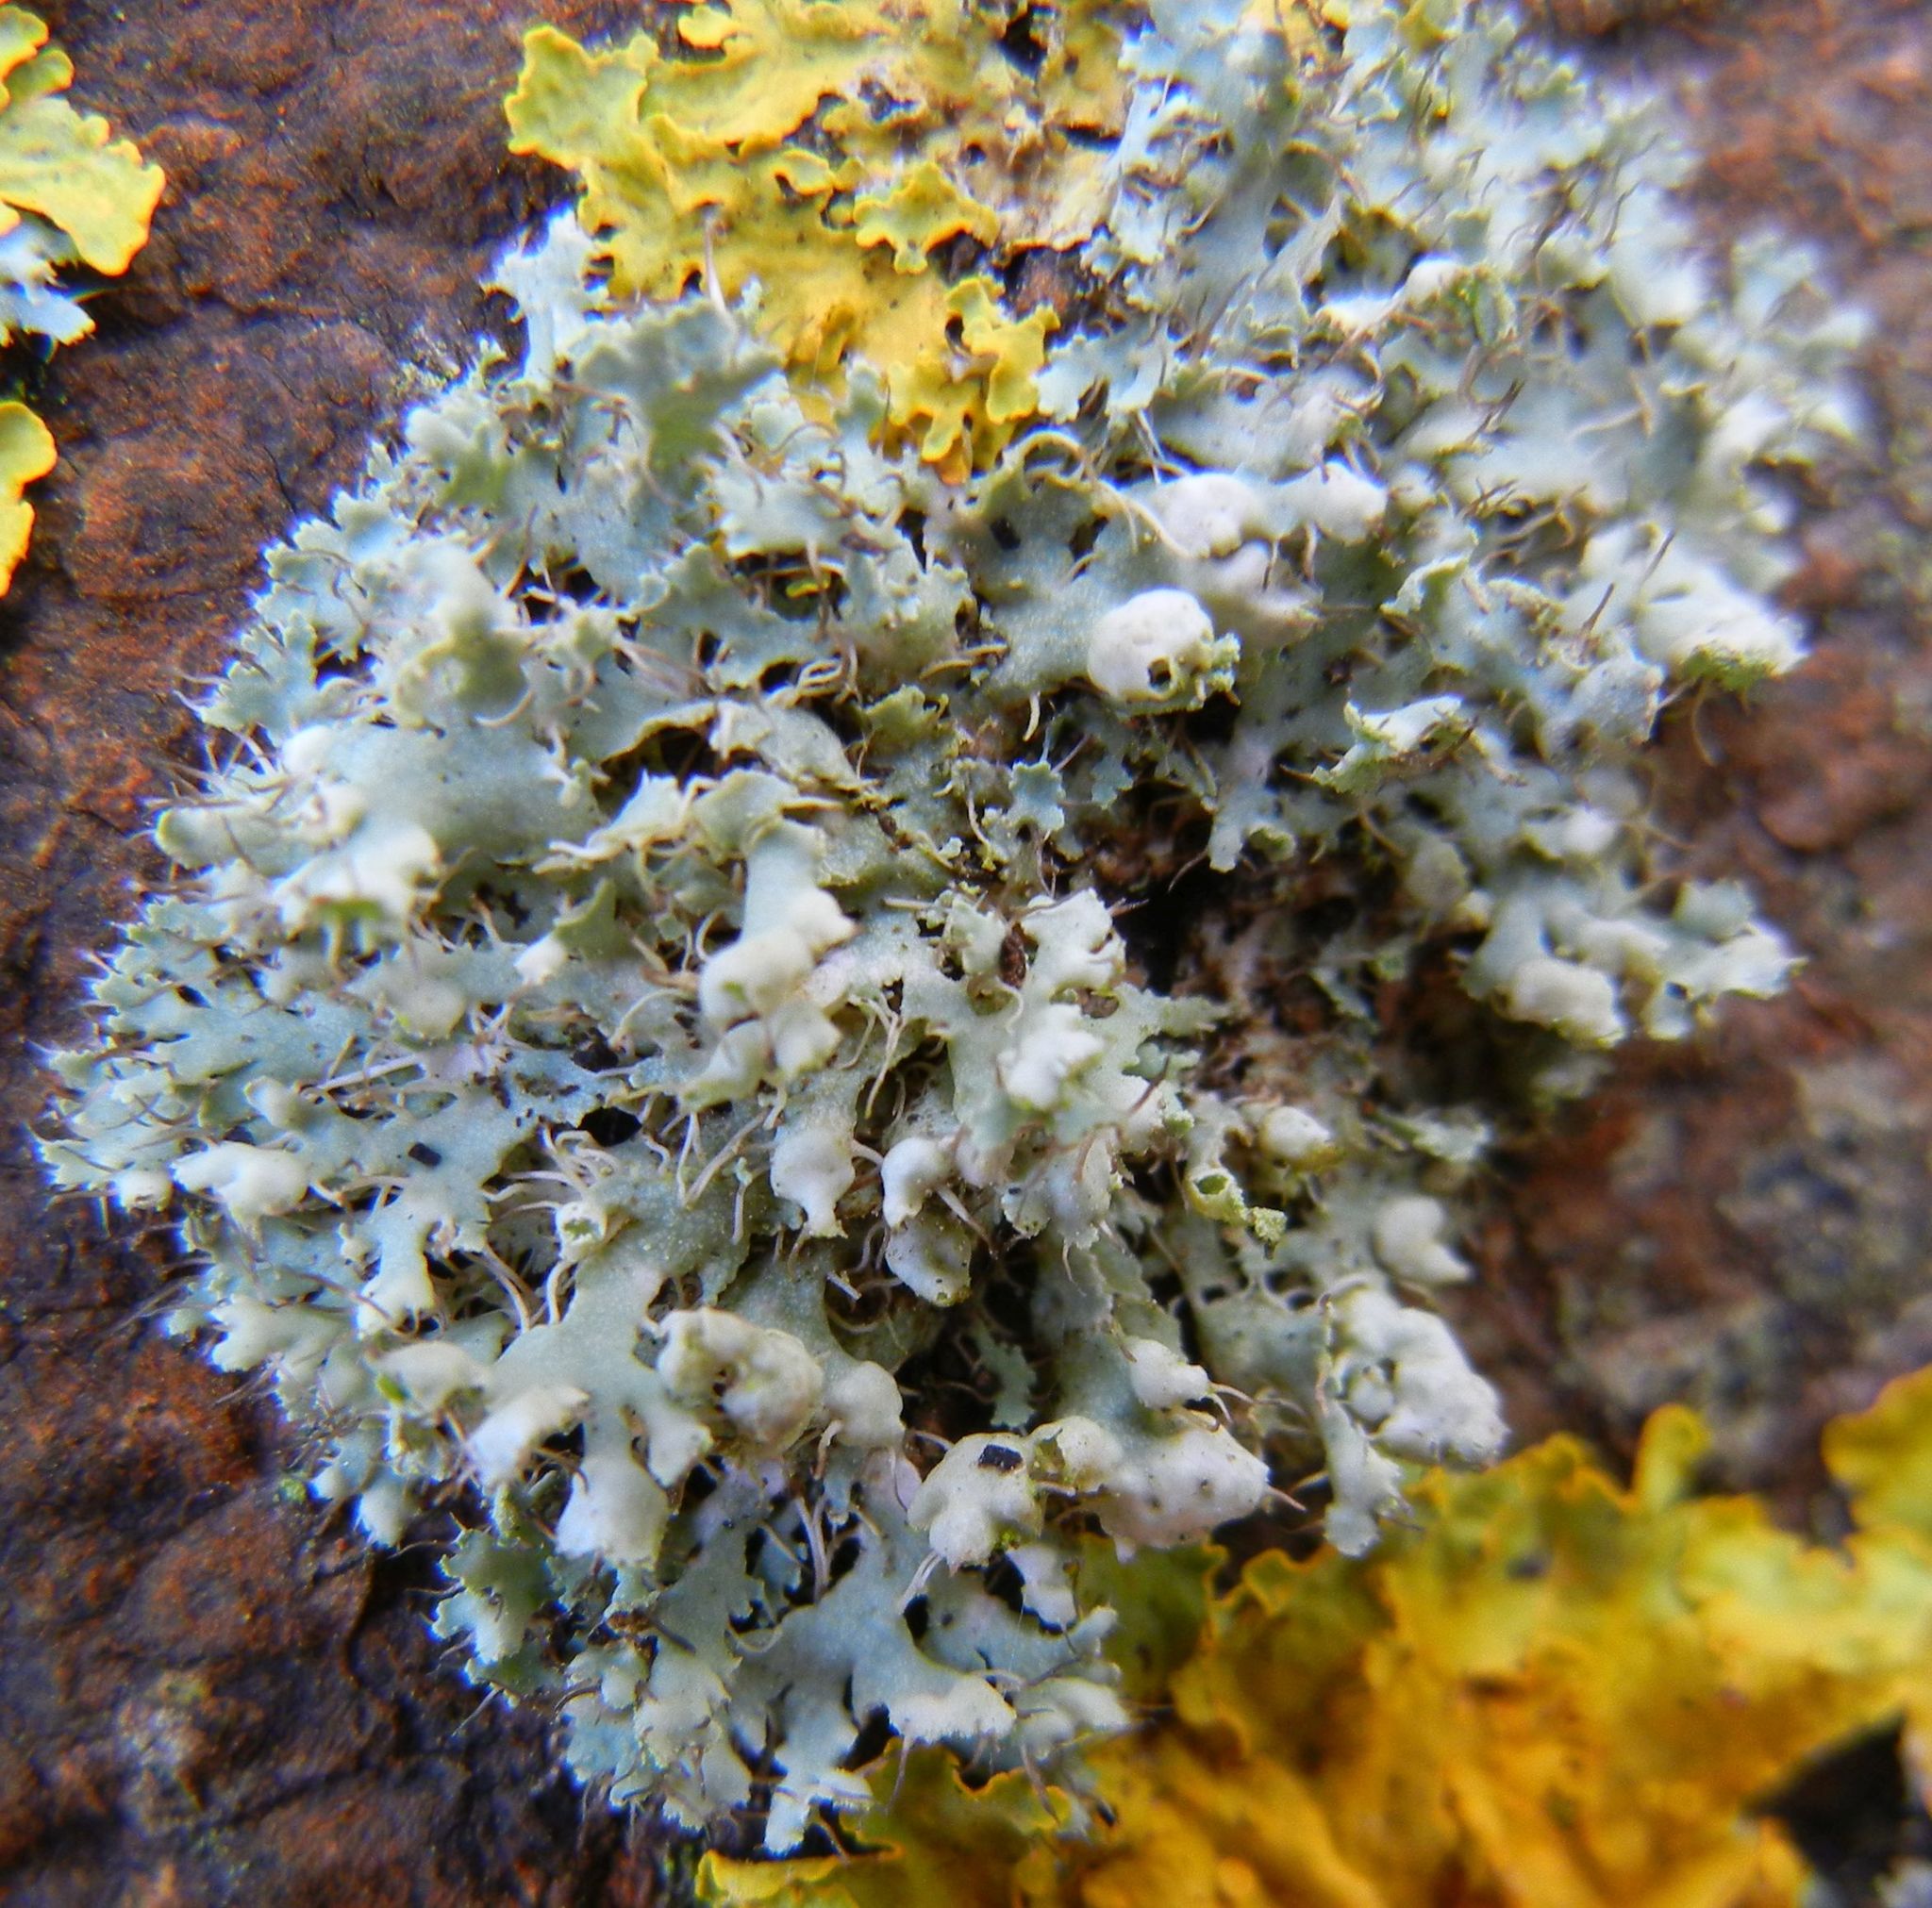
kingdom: Fungi
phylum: Ascomycota
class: Lecanoromycetes
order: Caliciales
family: Physciaceae
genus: Physcia
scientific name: Physcia adscendens
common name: Hooded rosette lichen
